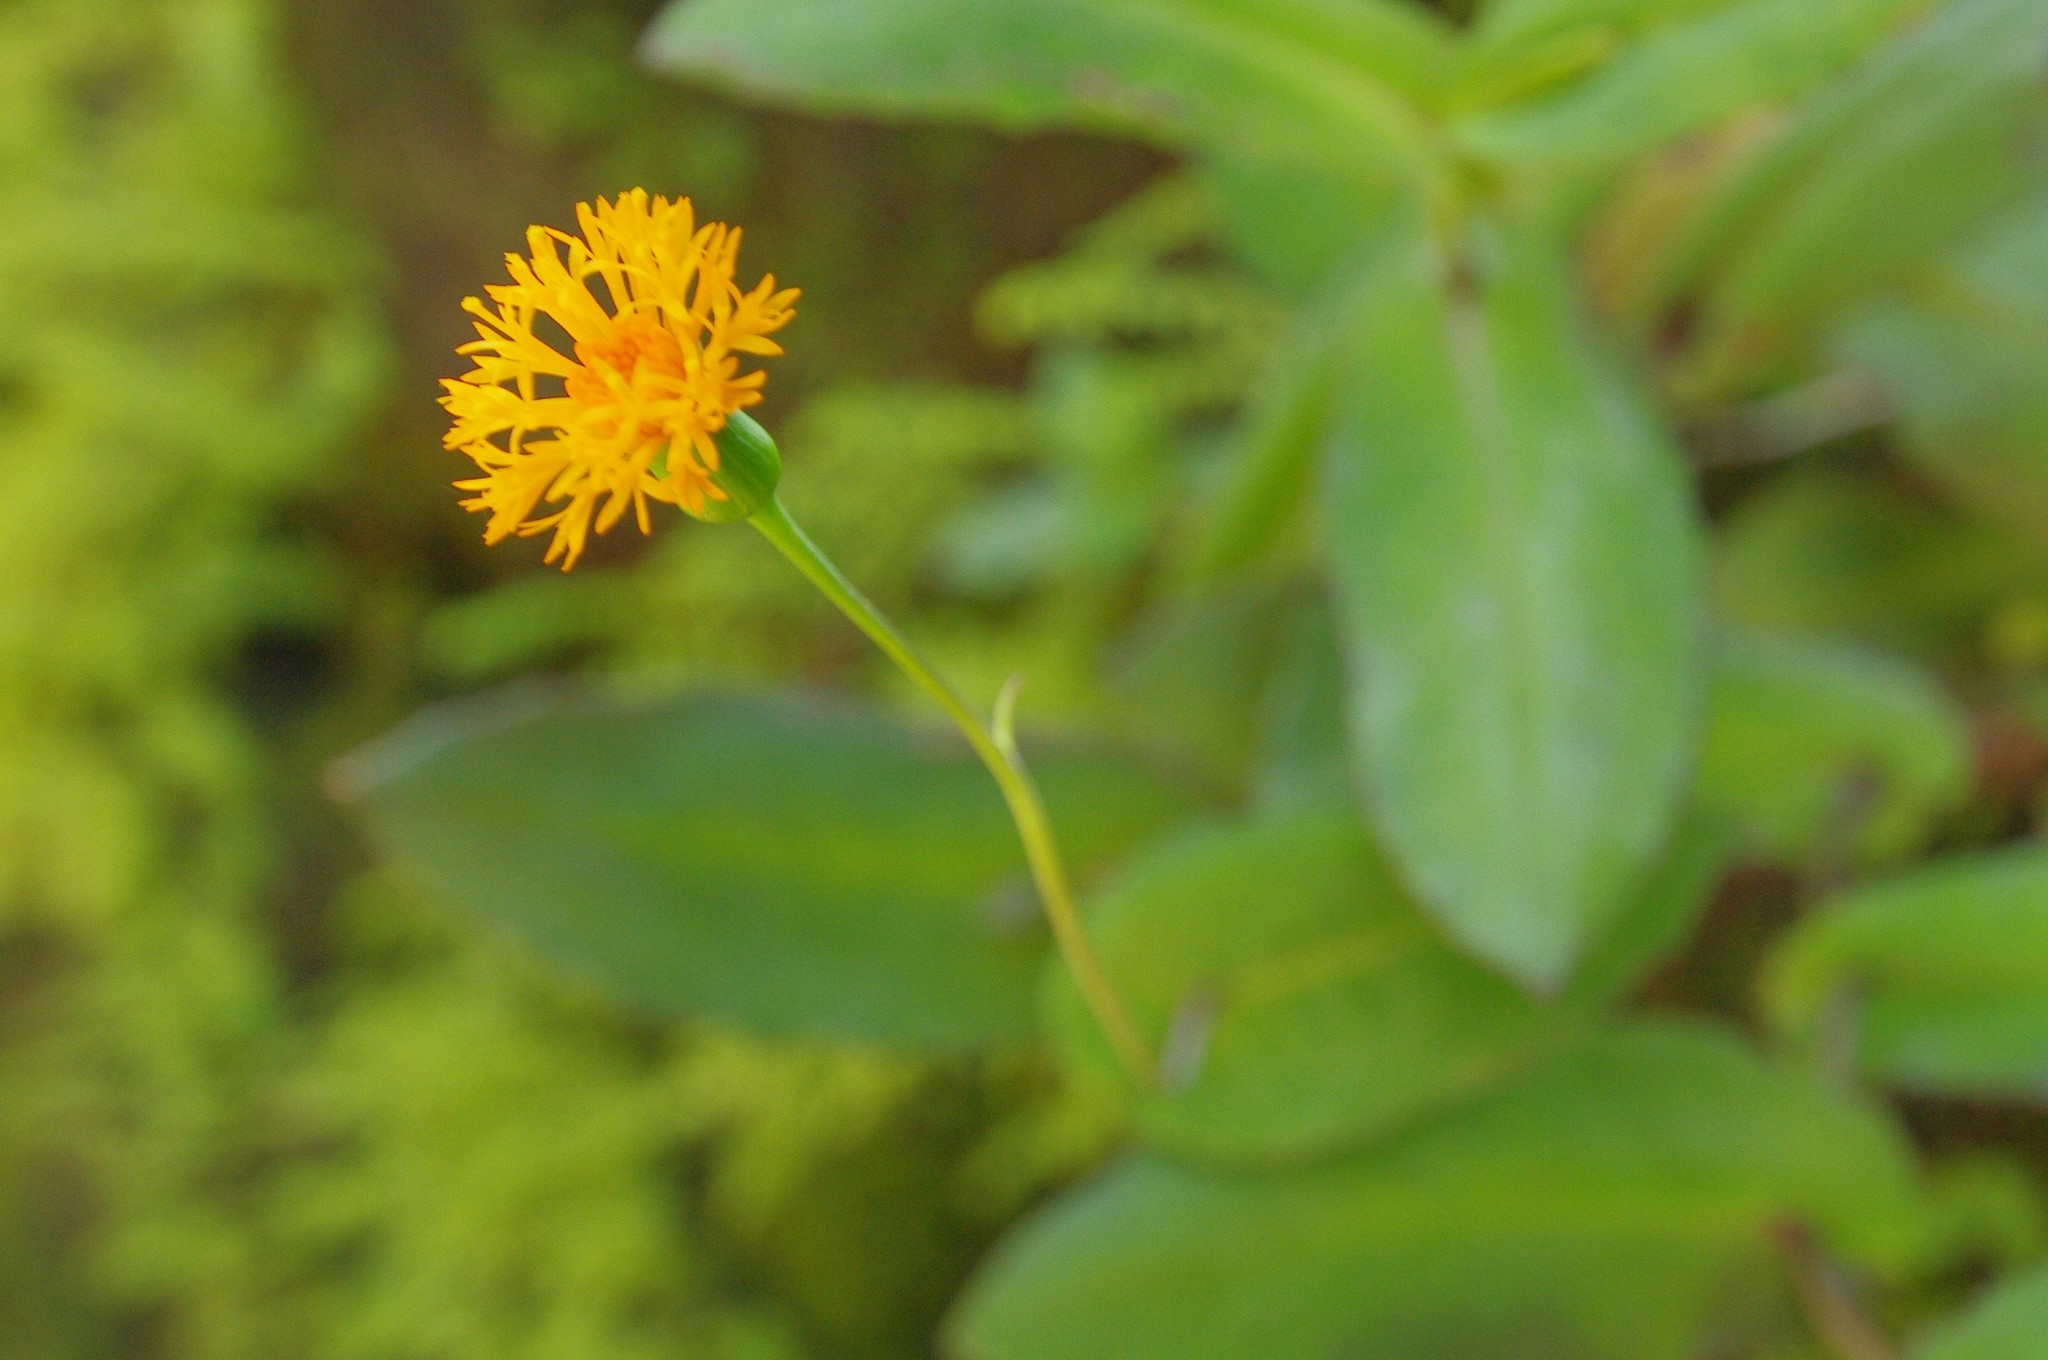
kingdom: Plantae
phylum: Tracheophyta
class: Magnoliopsida
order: Asterales
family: Asteraceae
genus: Emilia
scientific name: Emilia humifusa
